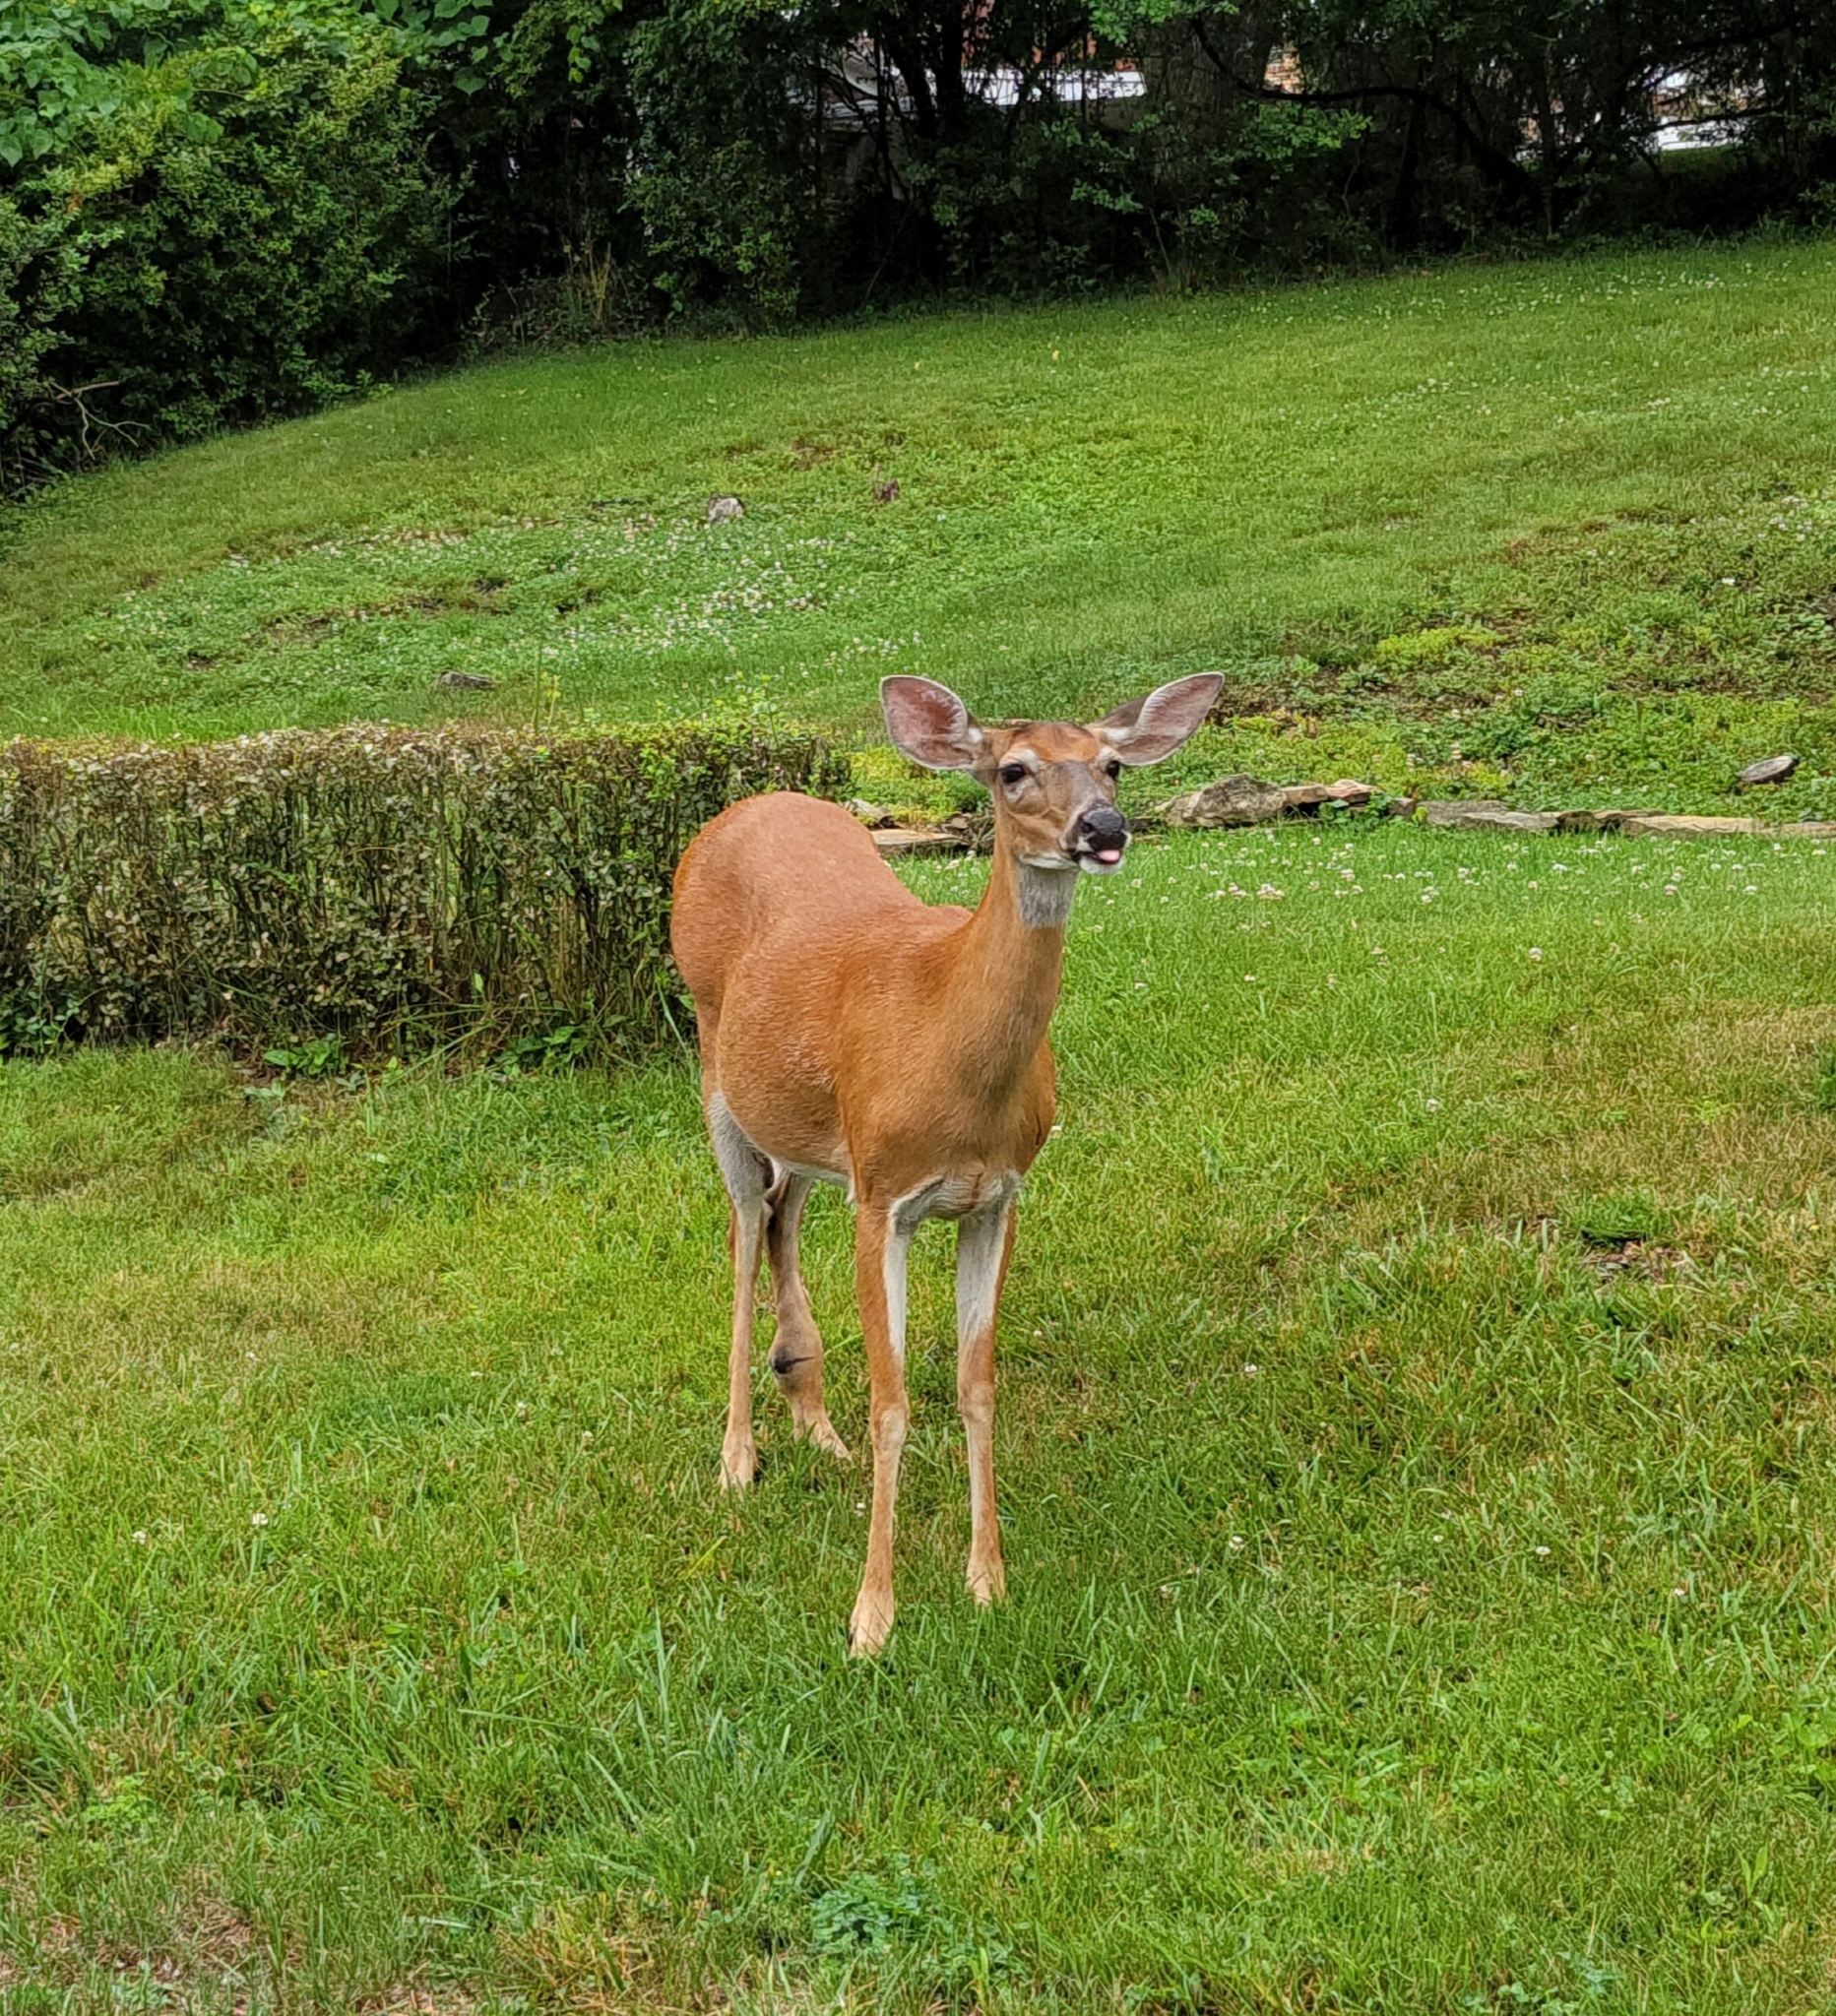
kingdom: Animalia
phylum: Chordata
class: Mammalia
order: Artiodactyla
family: Cervidae
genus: Odocoileus
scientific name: Odocoileus virginianus
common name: White-tailed deer
